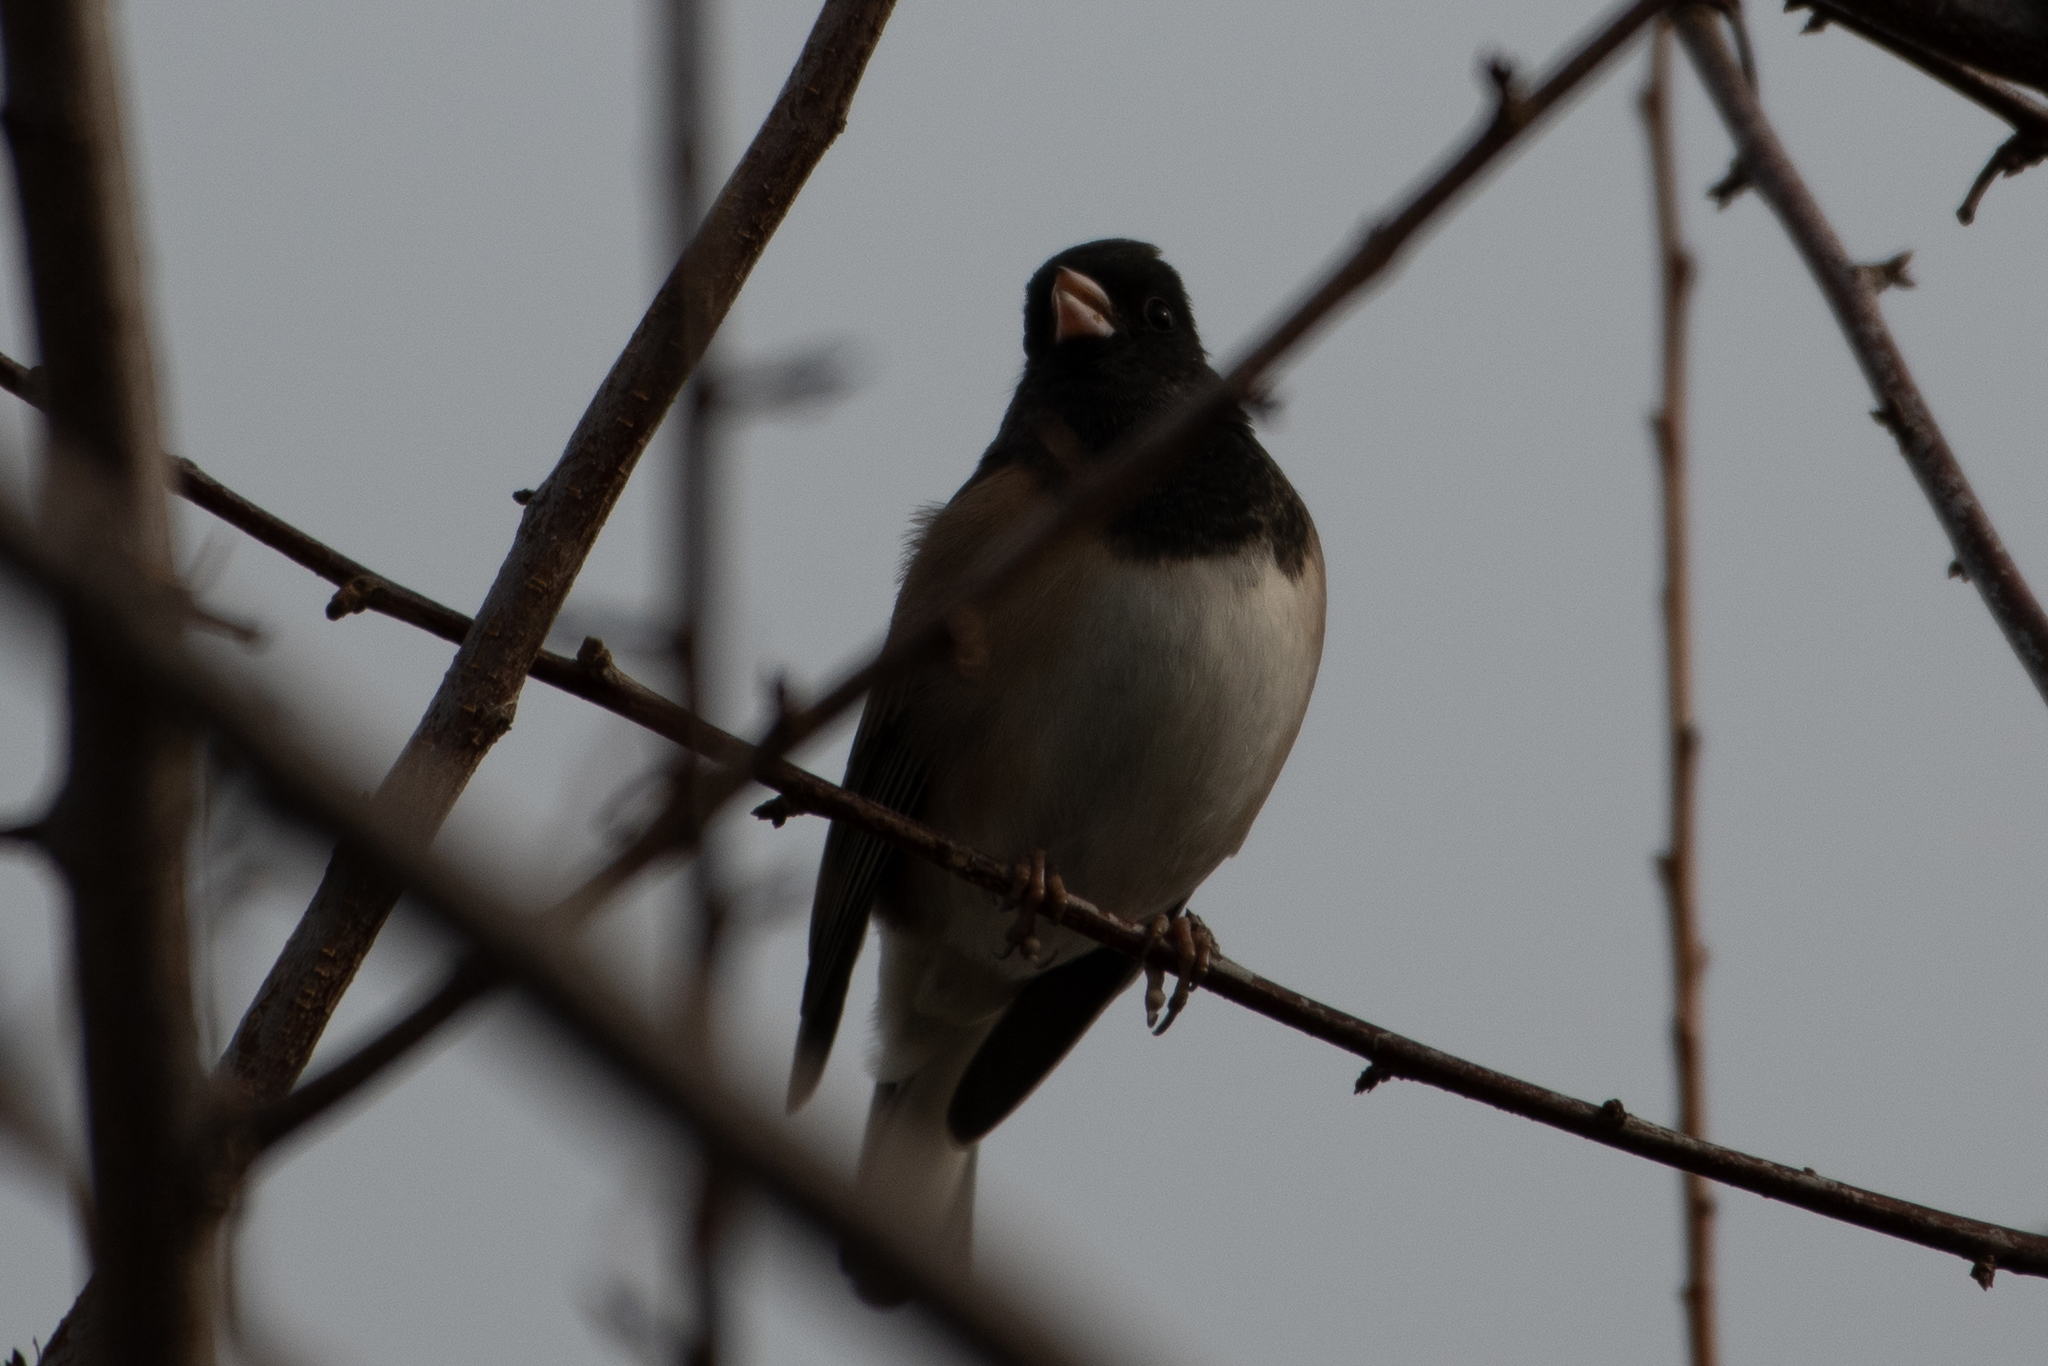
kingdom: Animalia
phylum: Chordata
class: Aves
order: Passeriformes
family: Passerellidae
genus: Junco
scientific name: Junco hyemalis
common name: Dark-eyed junco
